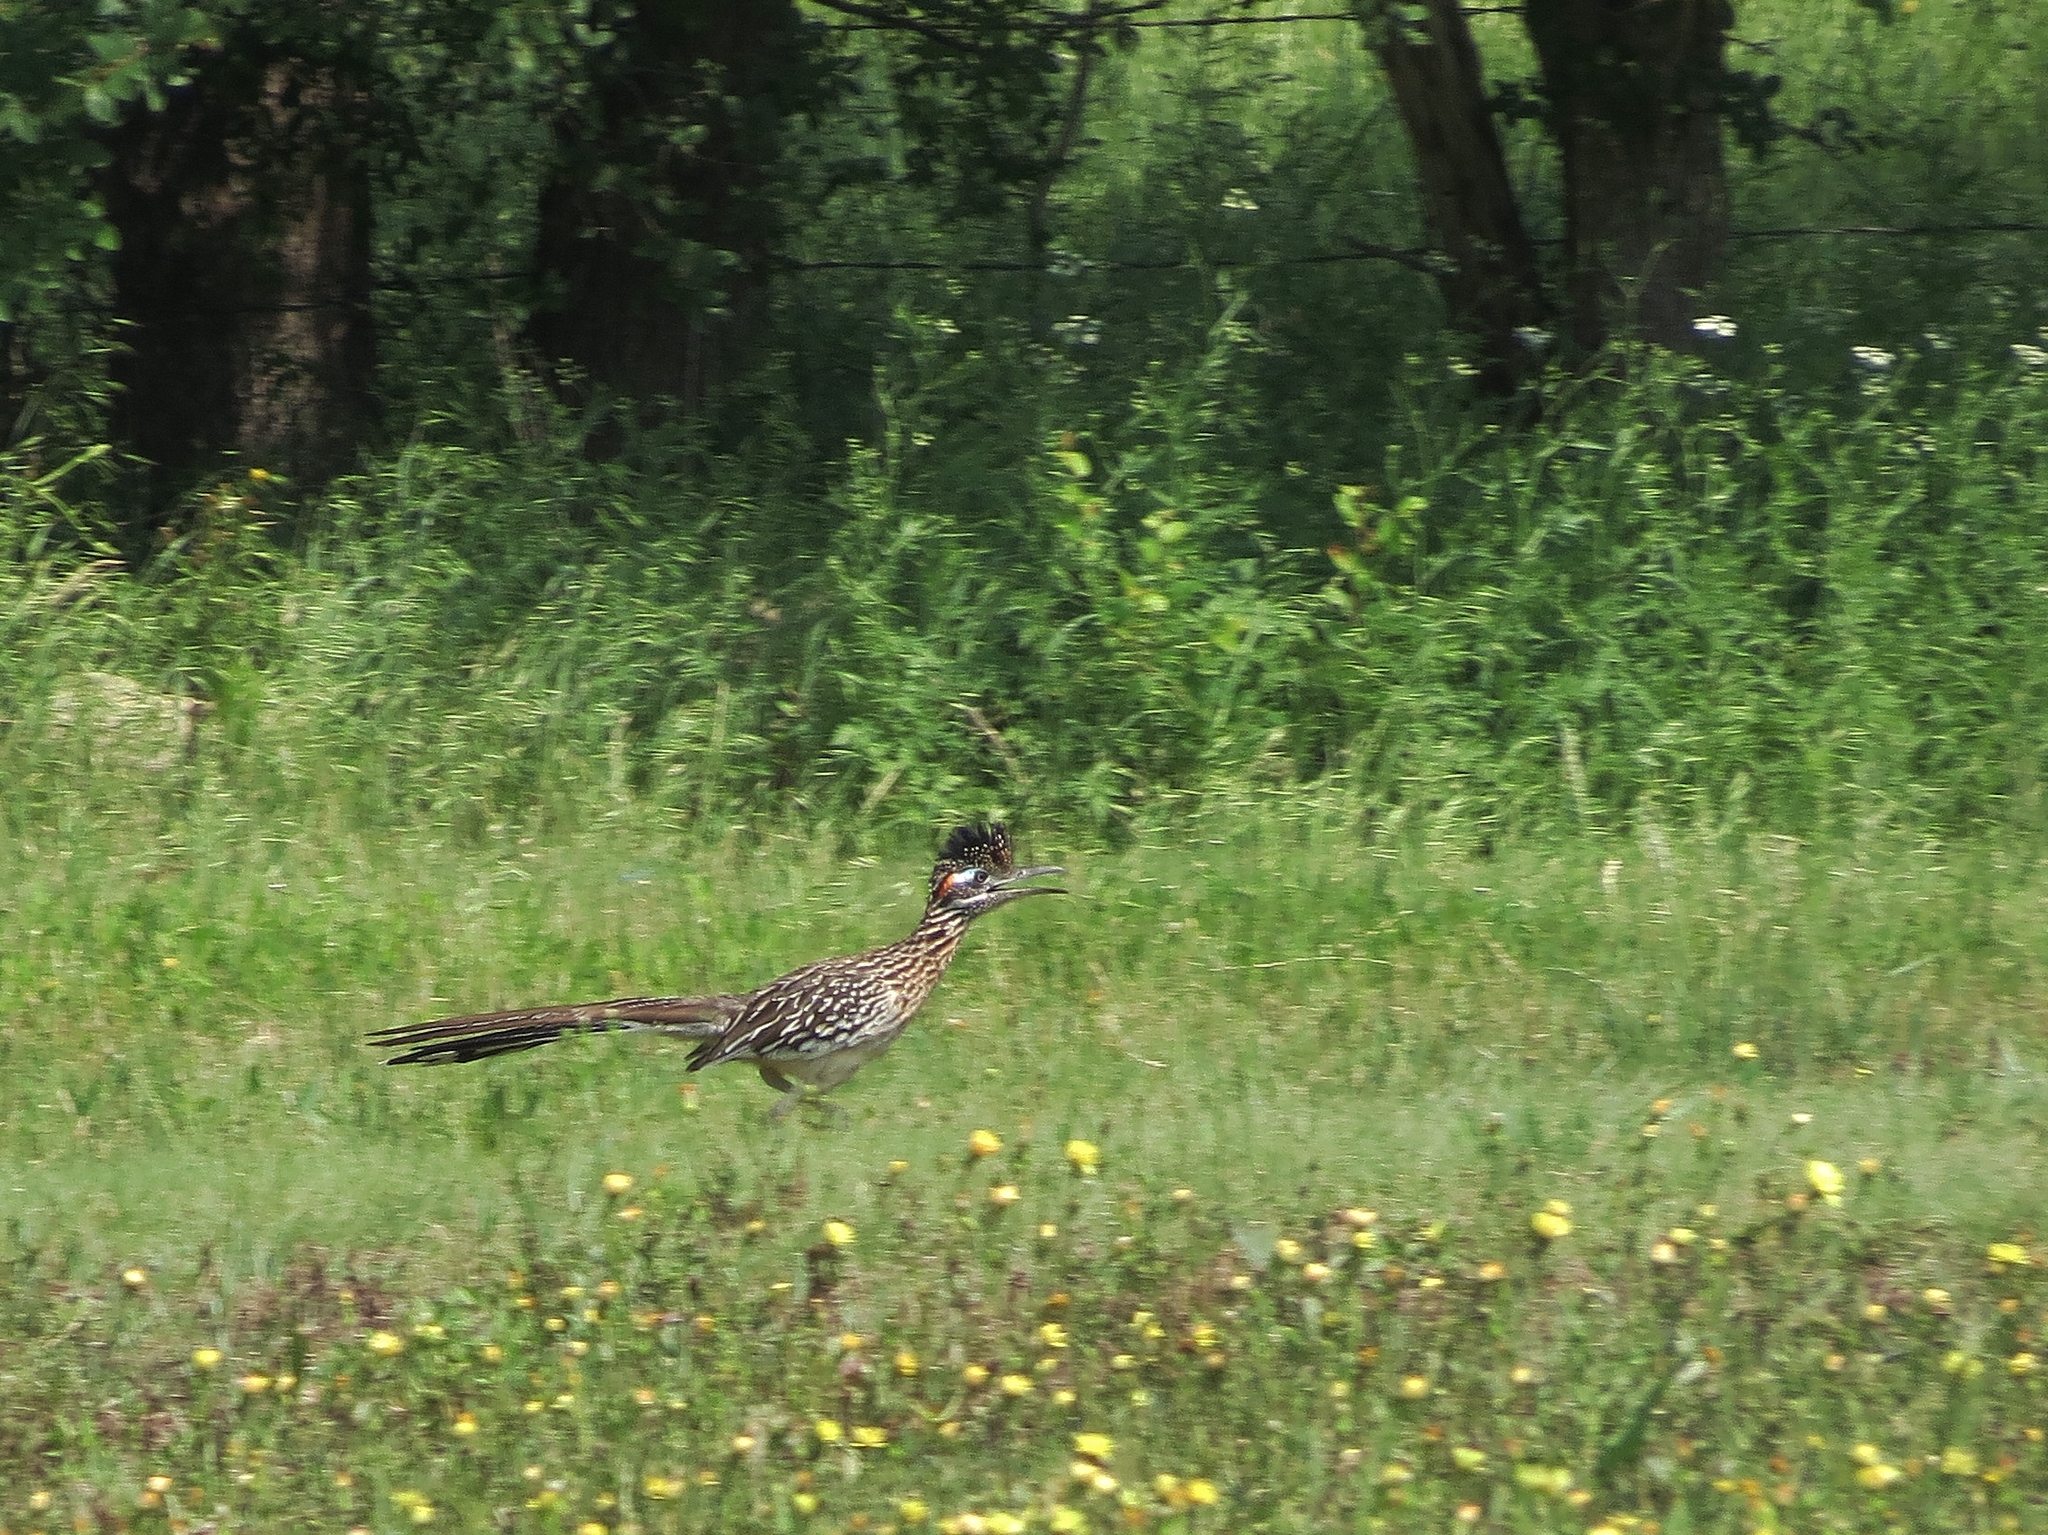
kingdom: Animalia
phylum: Chordata
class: Aves
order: Cuculiformes
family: Cuculidae
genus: Geococcyx
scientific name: Geococcyx californianus
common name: Greater roadrunner
